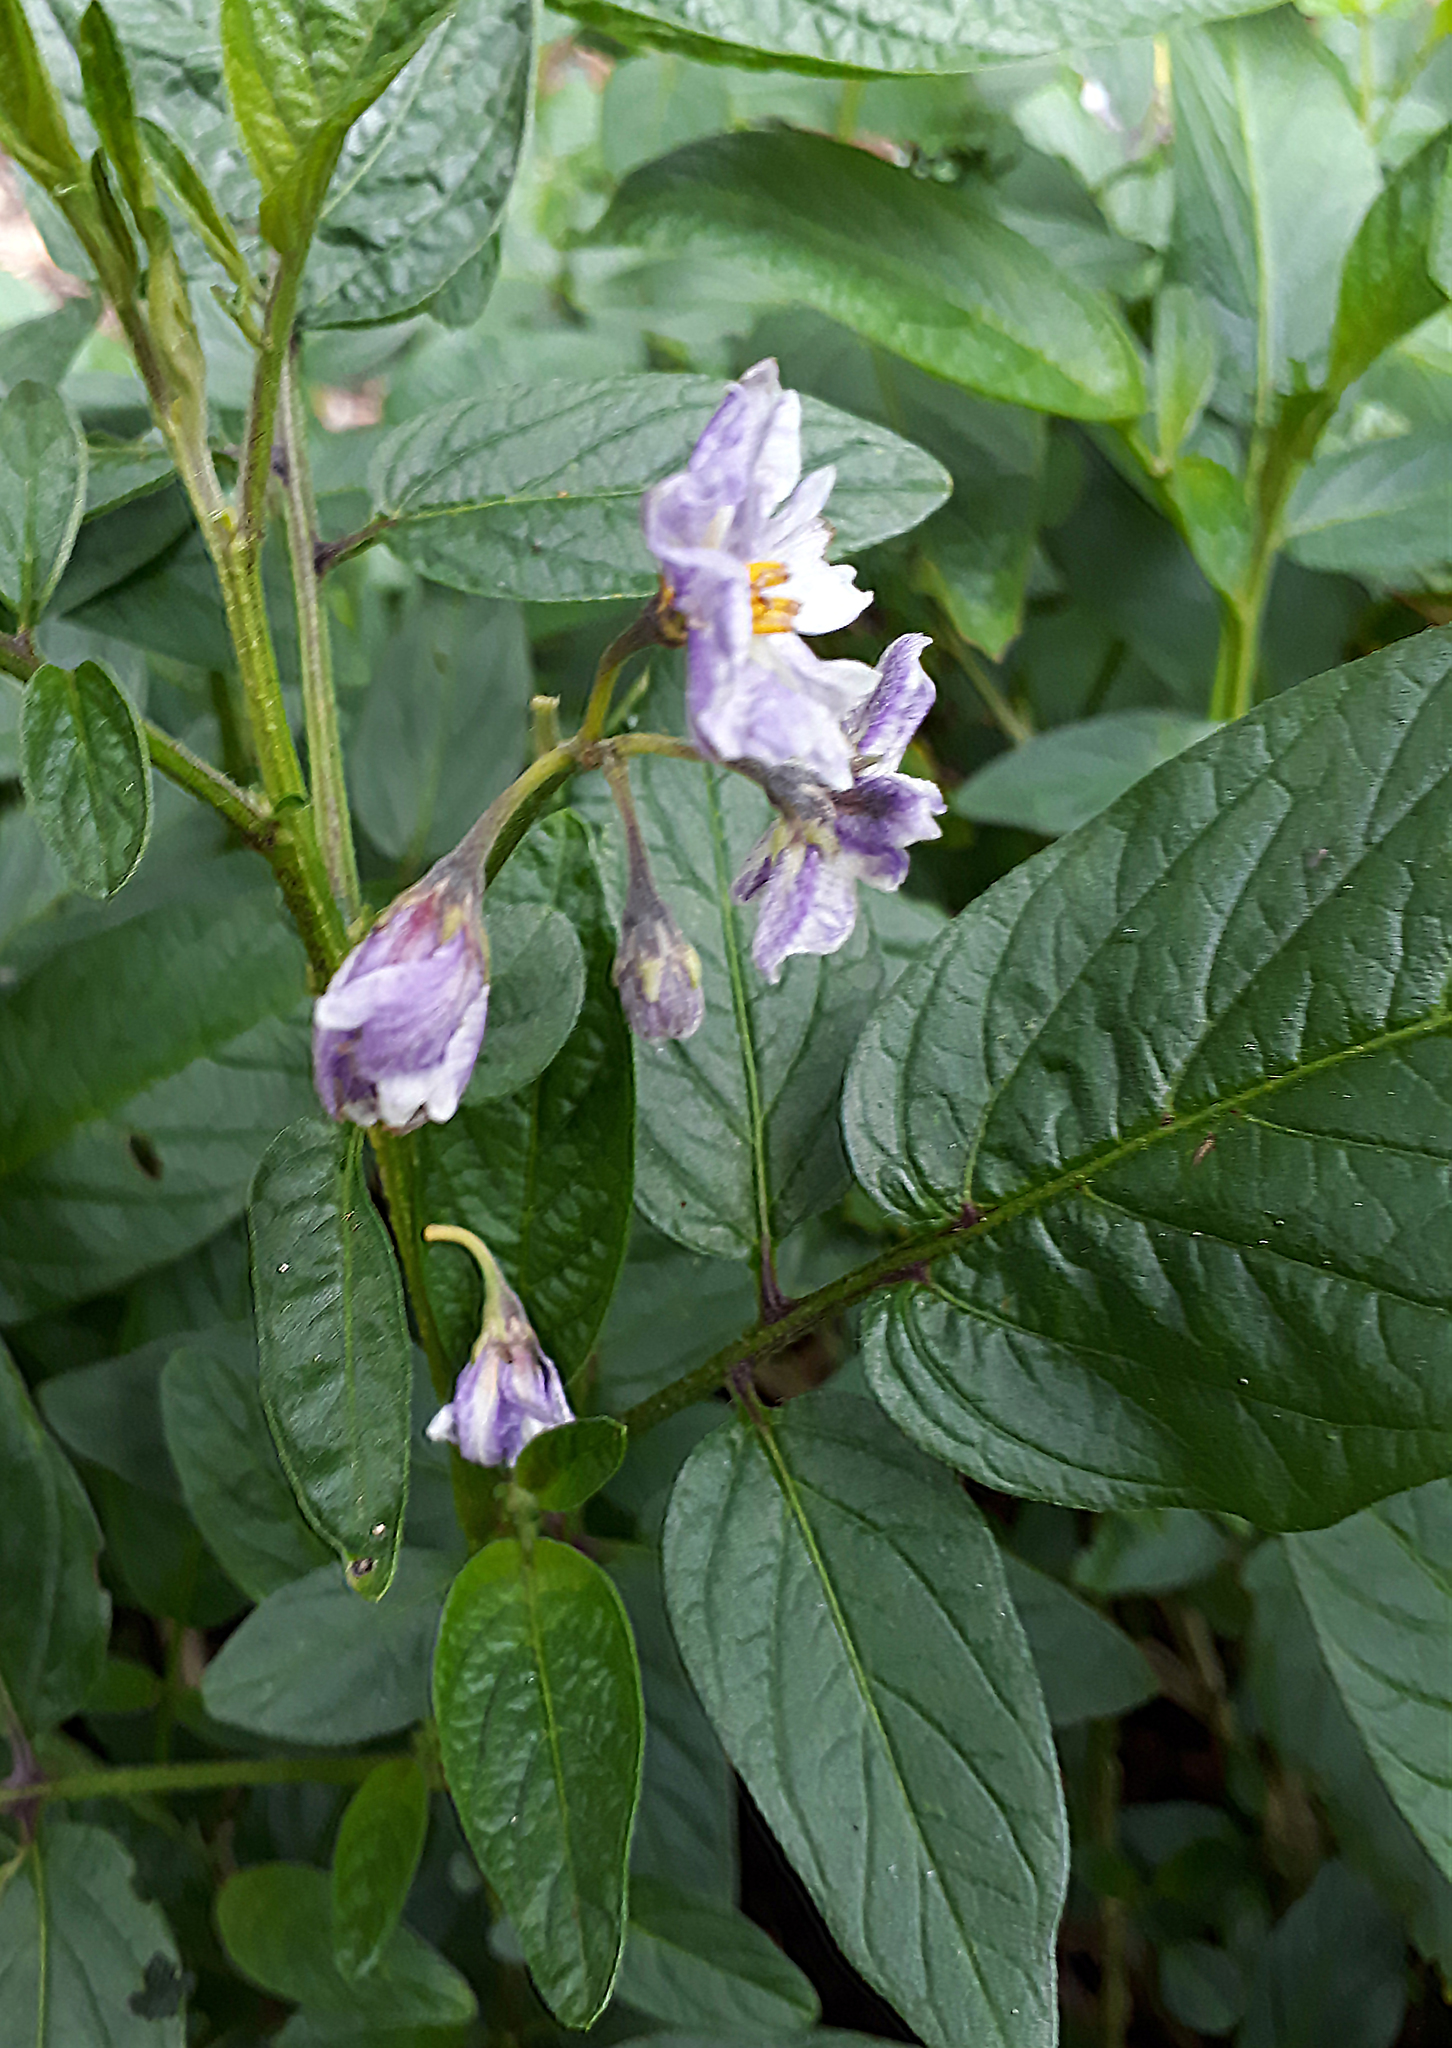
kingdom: Plantae
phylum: Tracheophyta
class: Magnoliopsida
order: Solanales
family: Solanaceae
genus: Solanum
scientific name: Solanum muricatum
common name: Peruvian pepino
